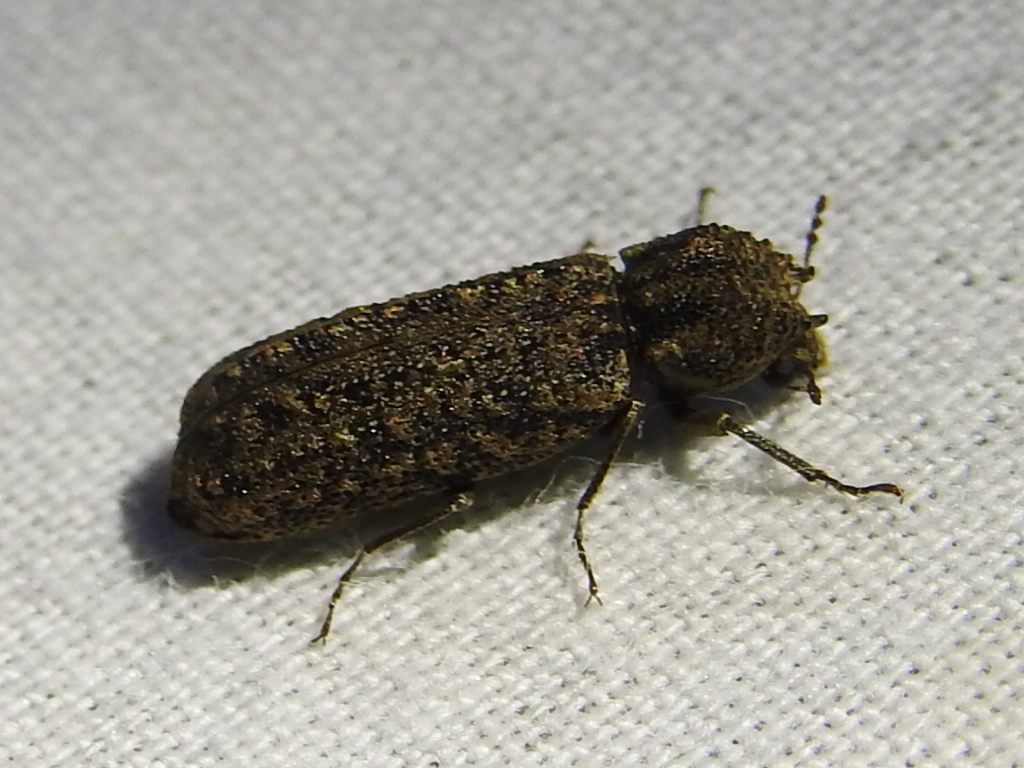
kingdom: Animalia
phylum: Arthropoda
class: Insecta
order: Coleoptera
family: Bostrichidae
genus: Lichenophanes
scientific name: Lichenophanes bicornis
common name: Two-horned powder-post beetle
